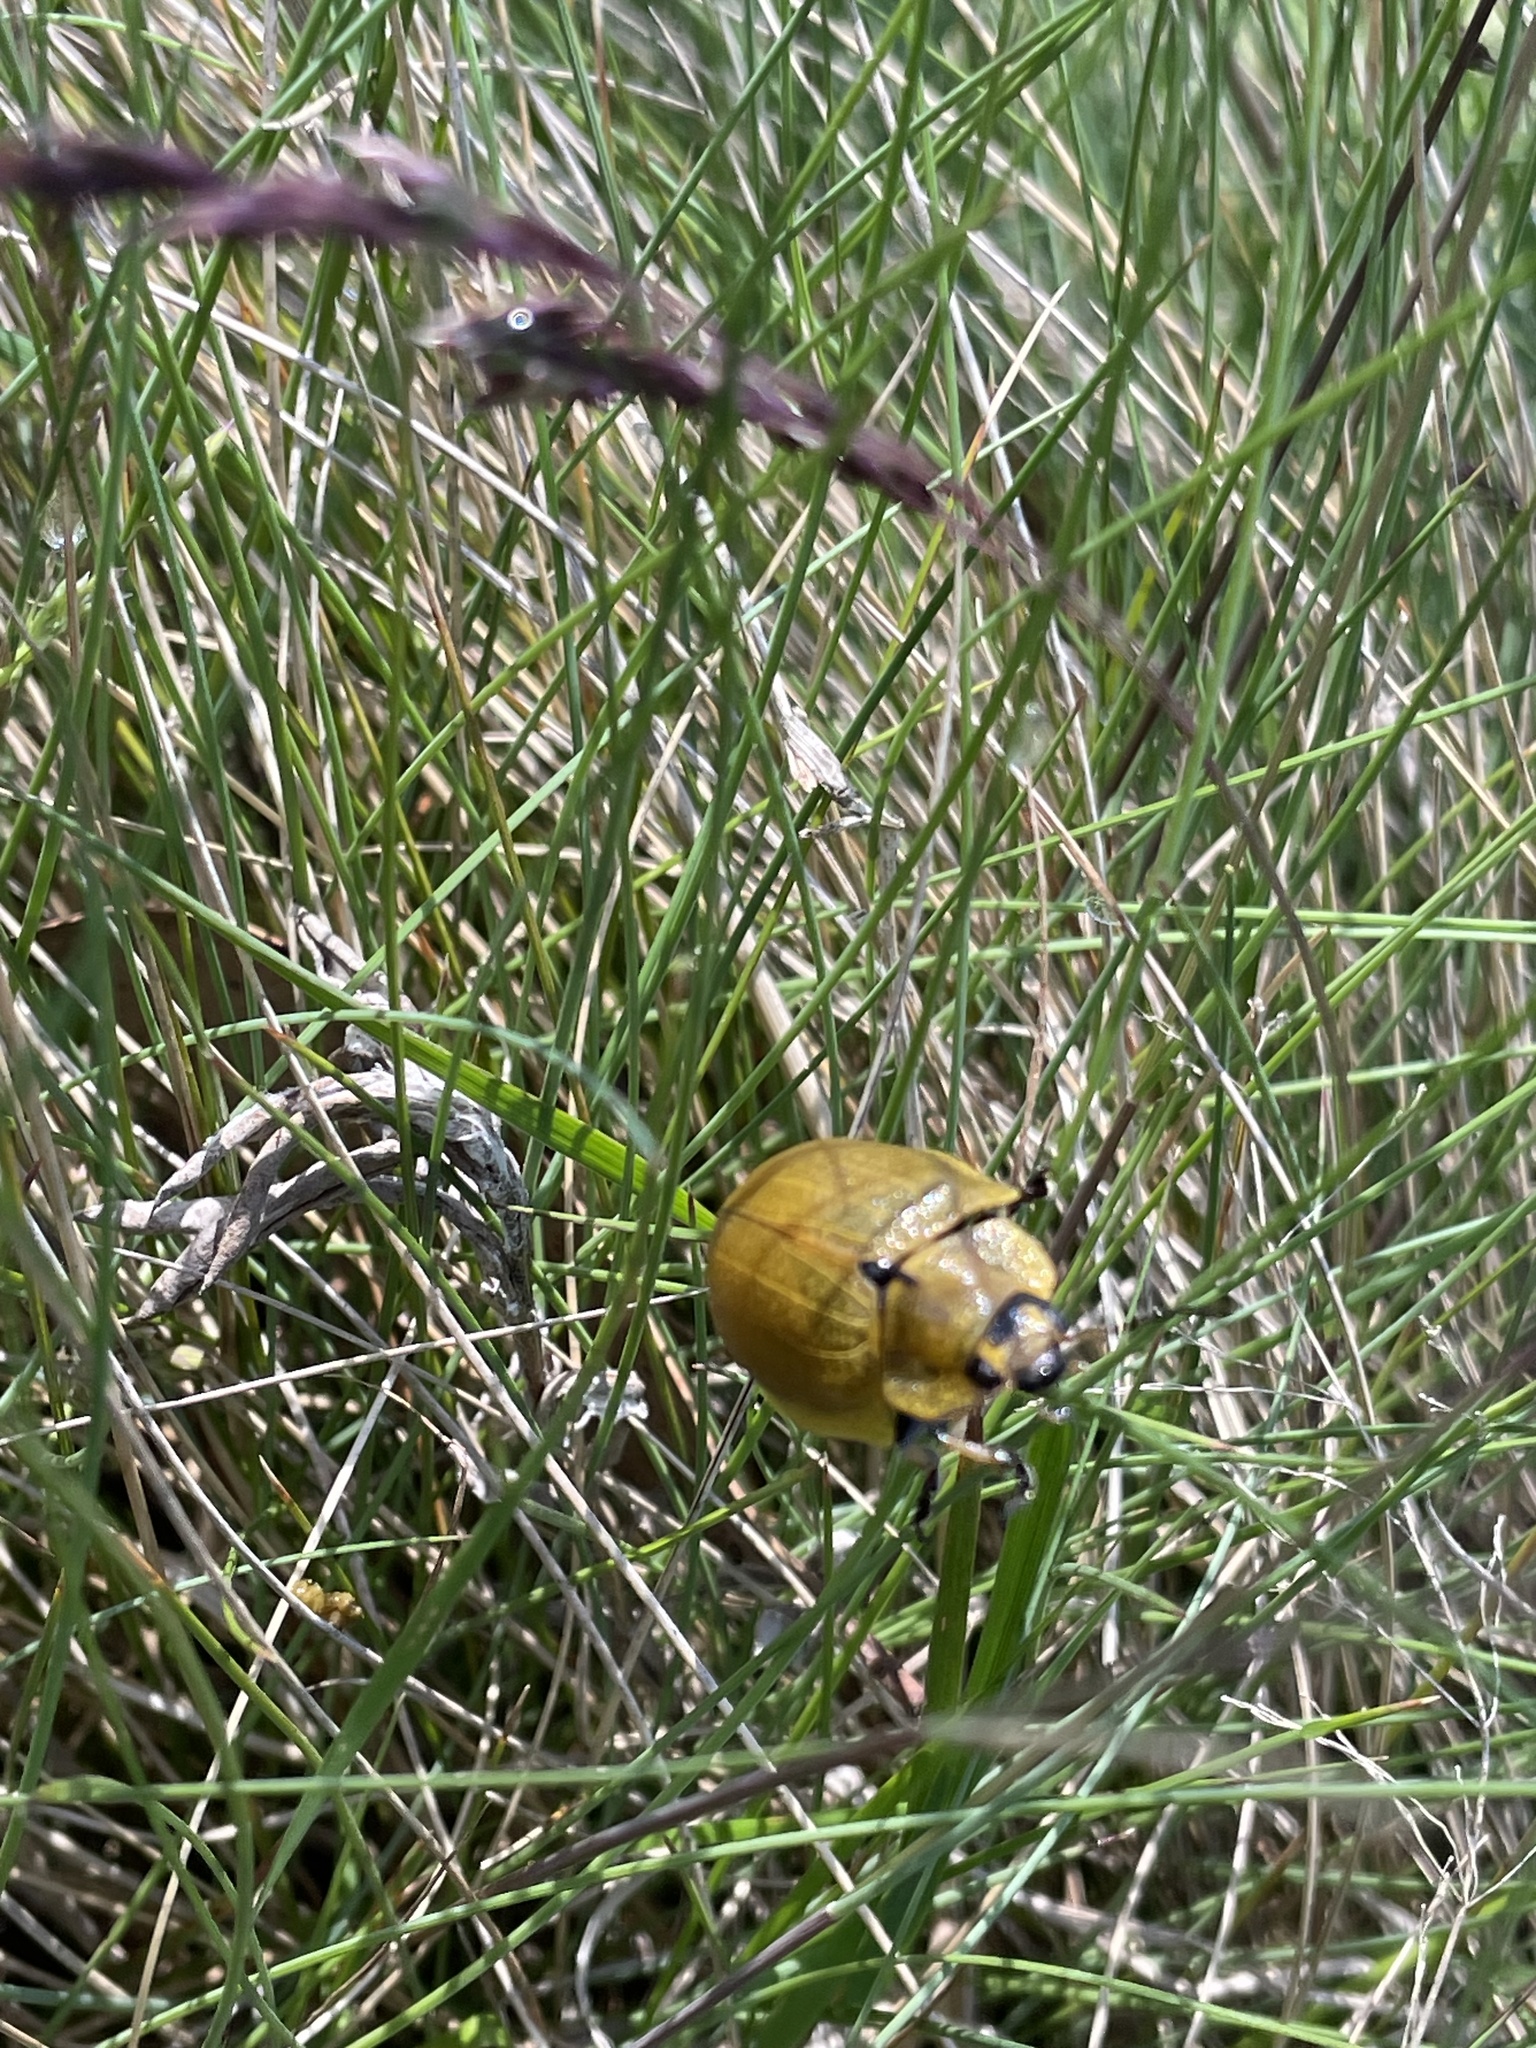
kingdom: Animalia
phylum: Arthropoda
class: Insecta
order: Coleoptera
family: Chrysomelidae
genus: Paropsis
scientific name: Paropsis
